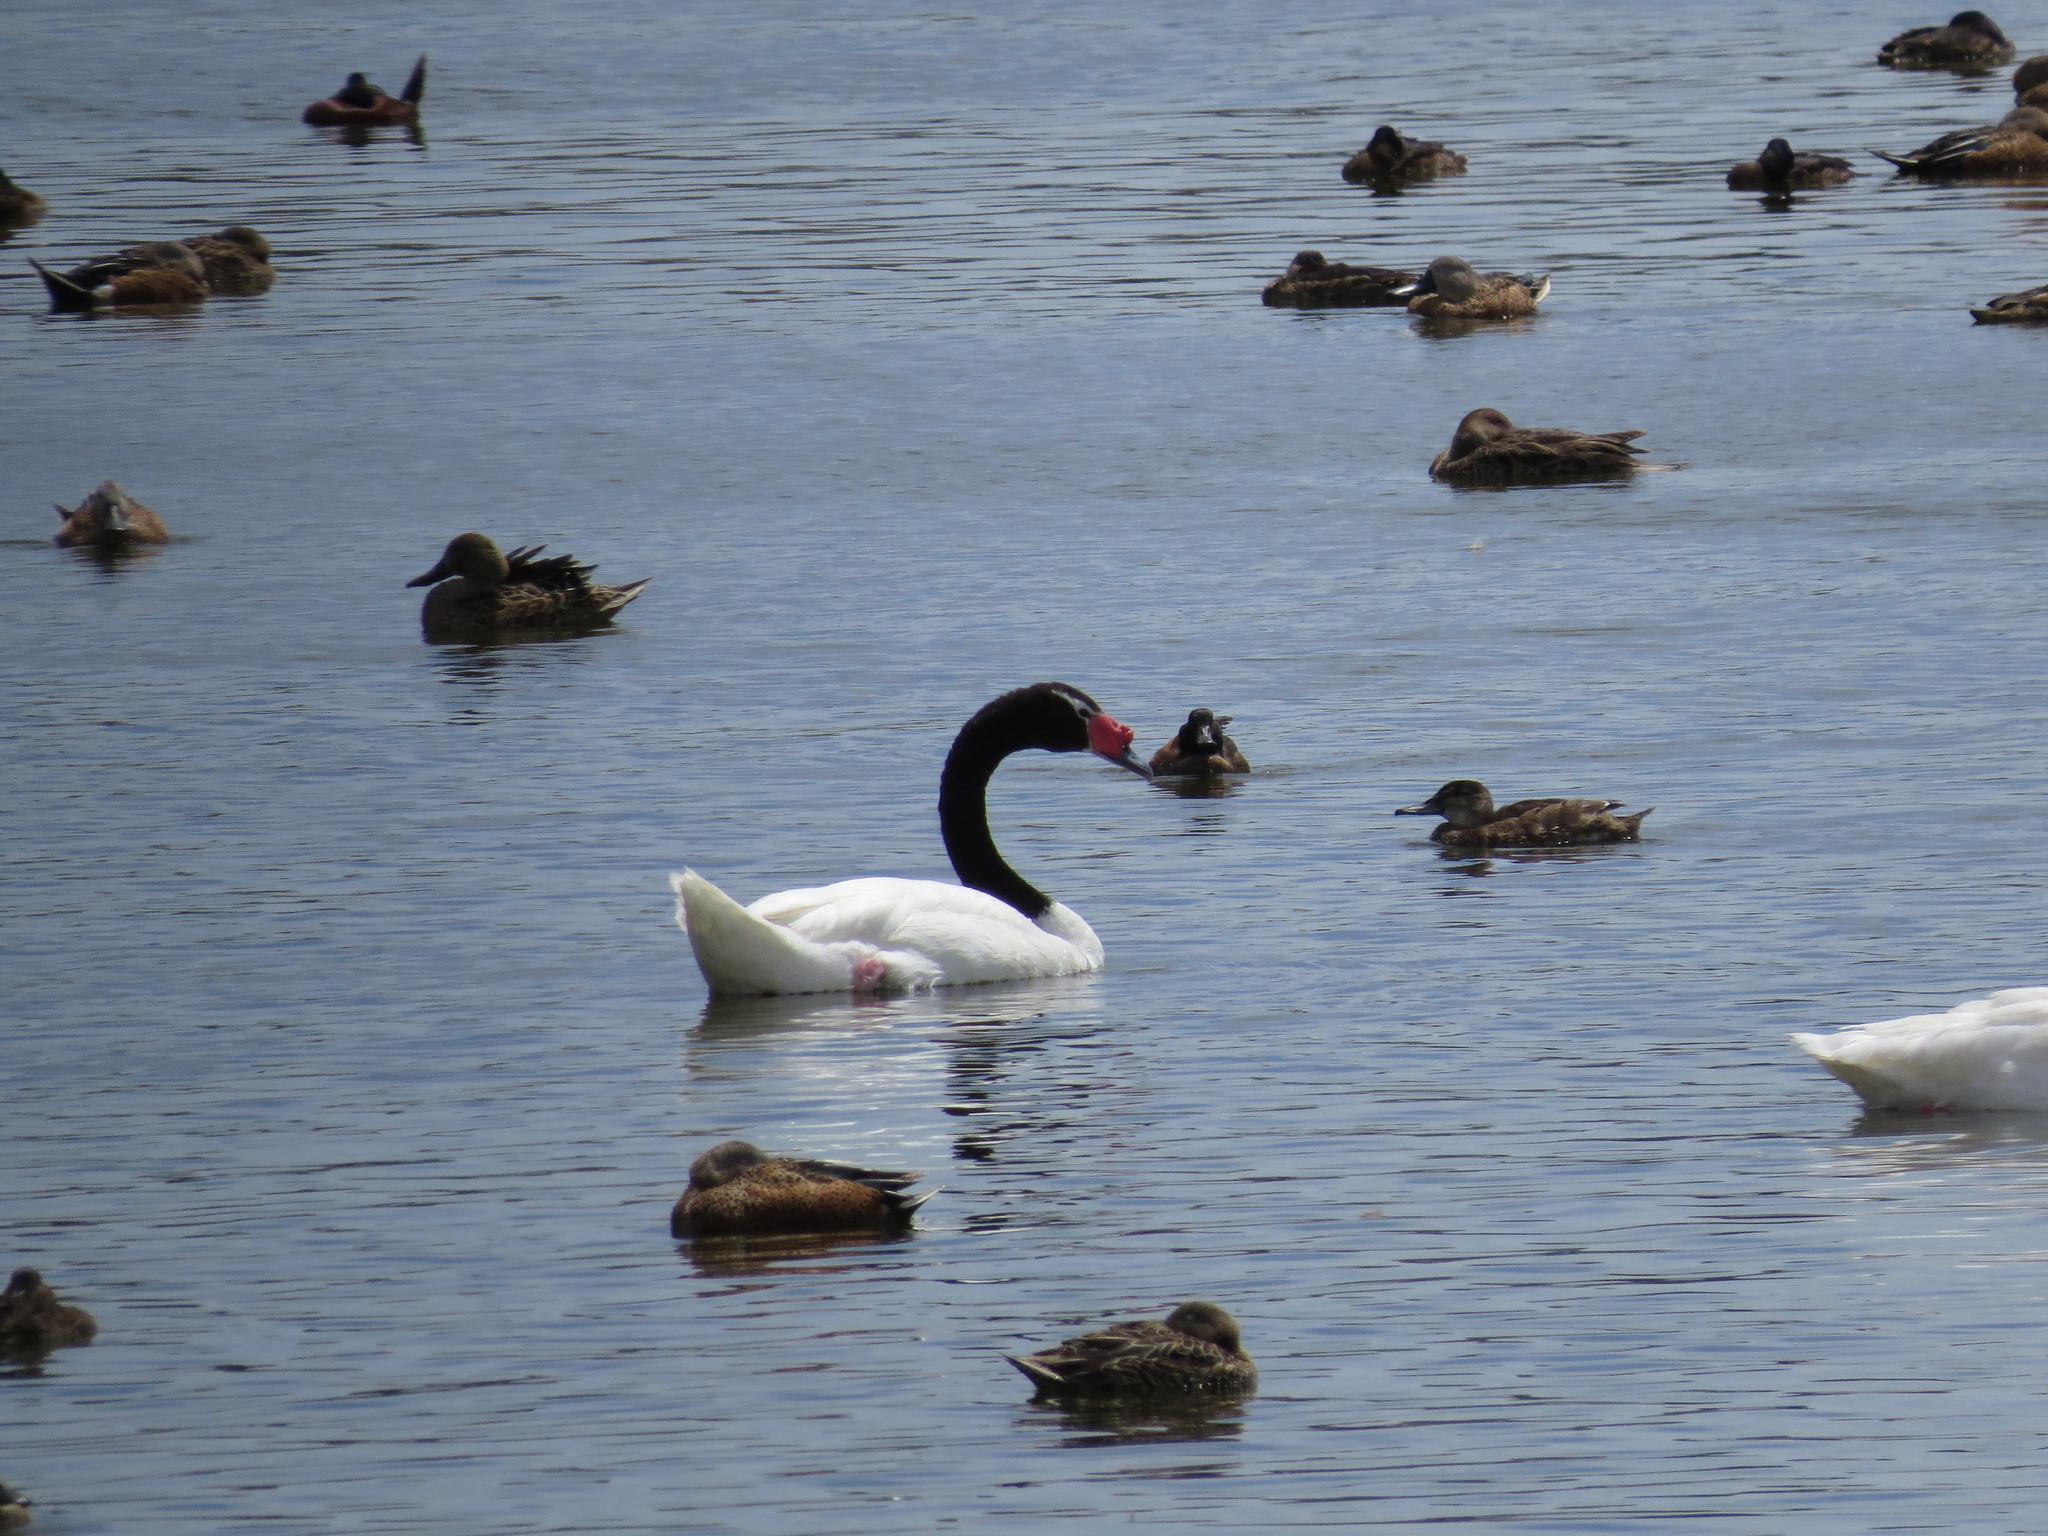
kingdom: Animalia
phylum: Chordata
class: Aves
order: Anseriformes
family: Anatidae
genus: Cygnus
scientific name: Cygnus melancoryphus
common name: Black-necked swan
